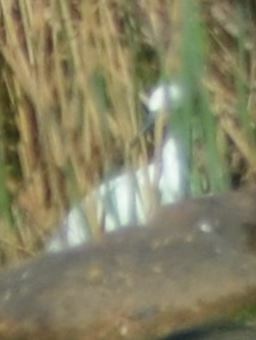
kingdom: Animalia
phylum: Chordata
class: Aves
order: Pelecaniformes
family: Ardeidae
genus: Egretta
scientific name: Egretta garzetta
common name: Little egret
